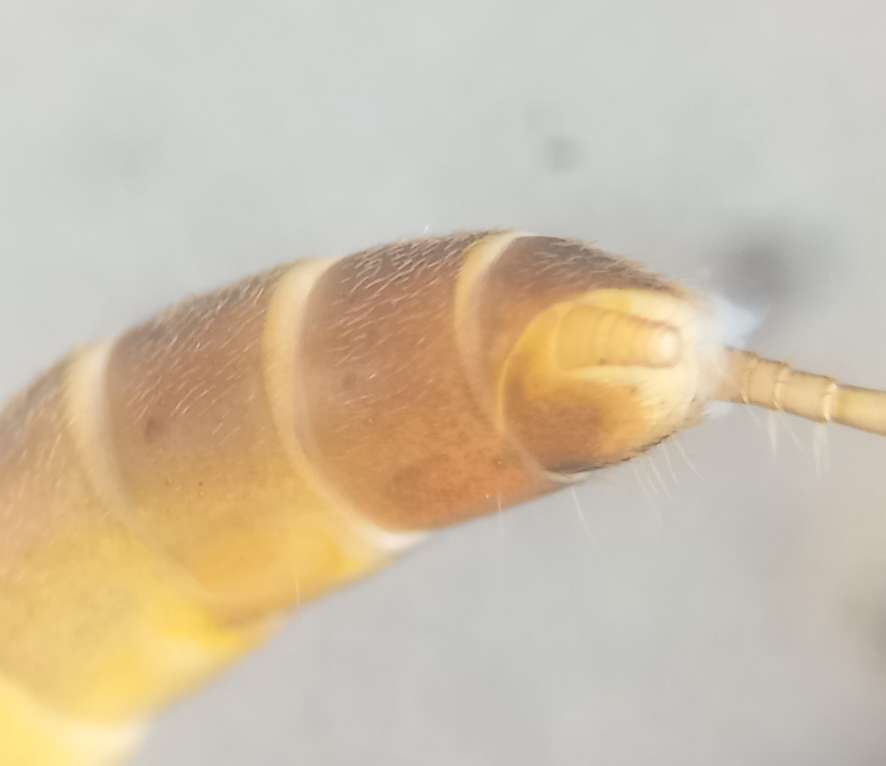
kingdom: Animalia
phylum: Arthropoda
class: Insecta
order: Plecoptera
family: Leuctridae
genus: Leuctra
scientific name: Leuctra hippopus
